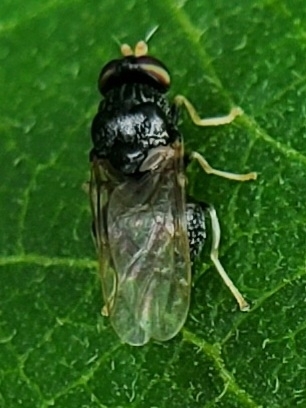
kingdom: Animalia
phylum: Arthropoda
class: Insecta
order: Diptera
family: Stratiomyidae
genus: Gowdeyana
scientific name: Gowdeyana punctifera
